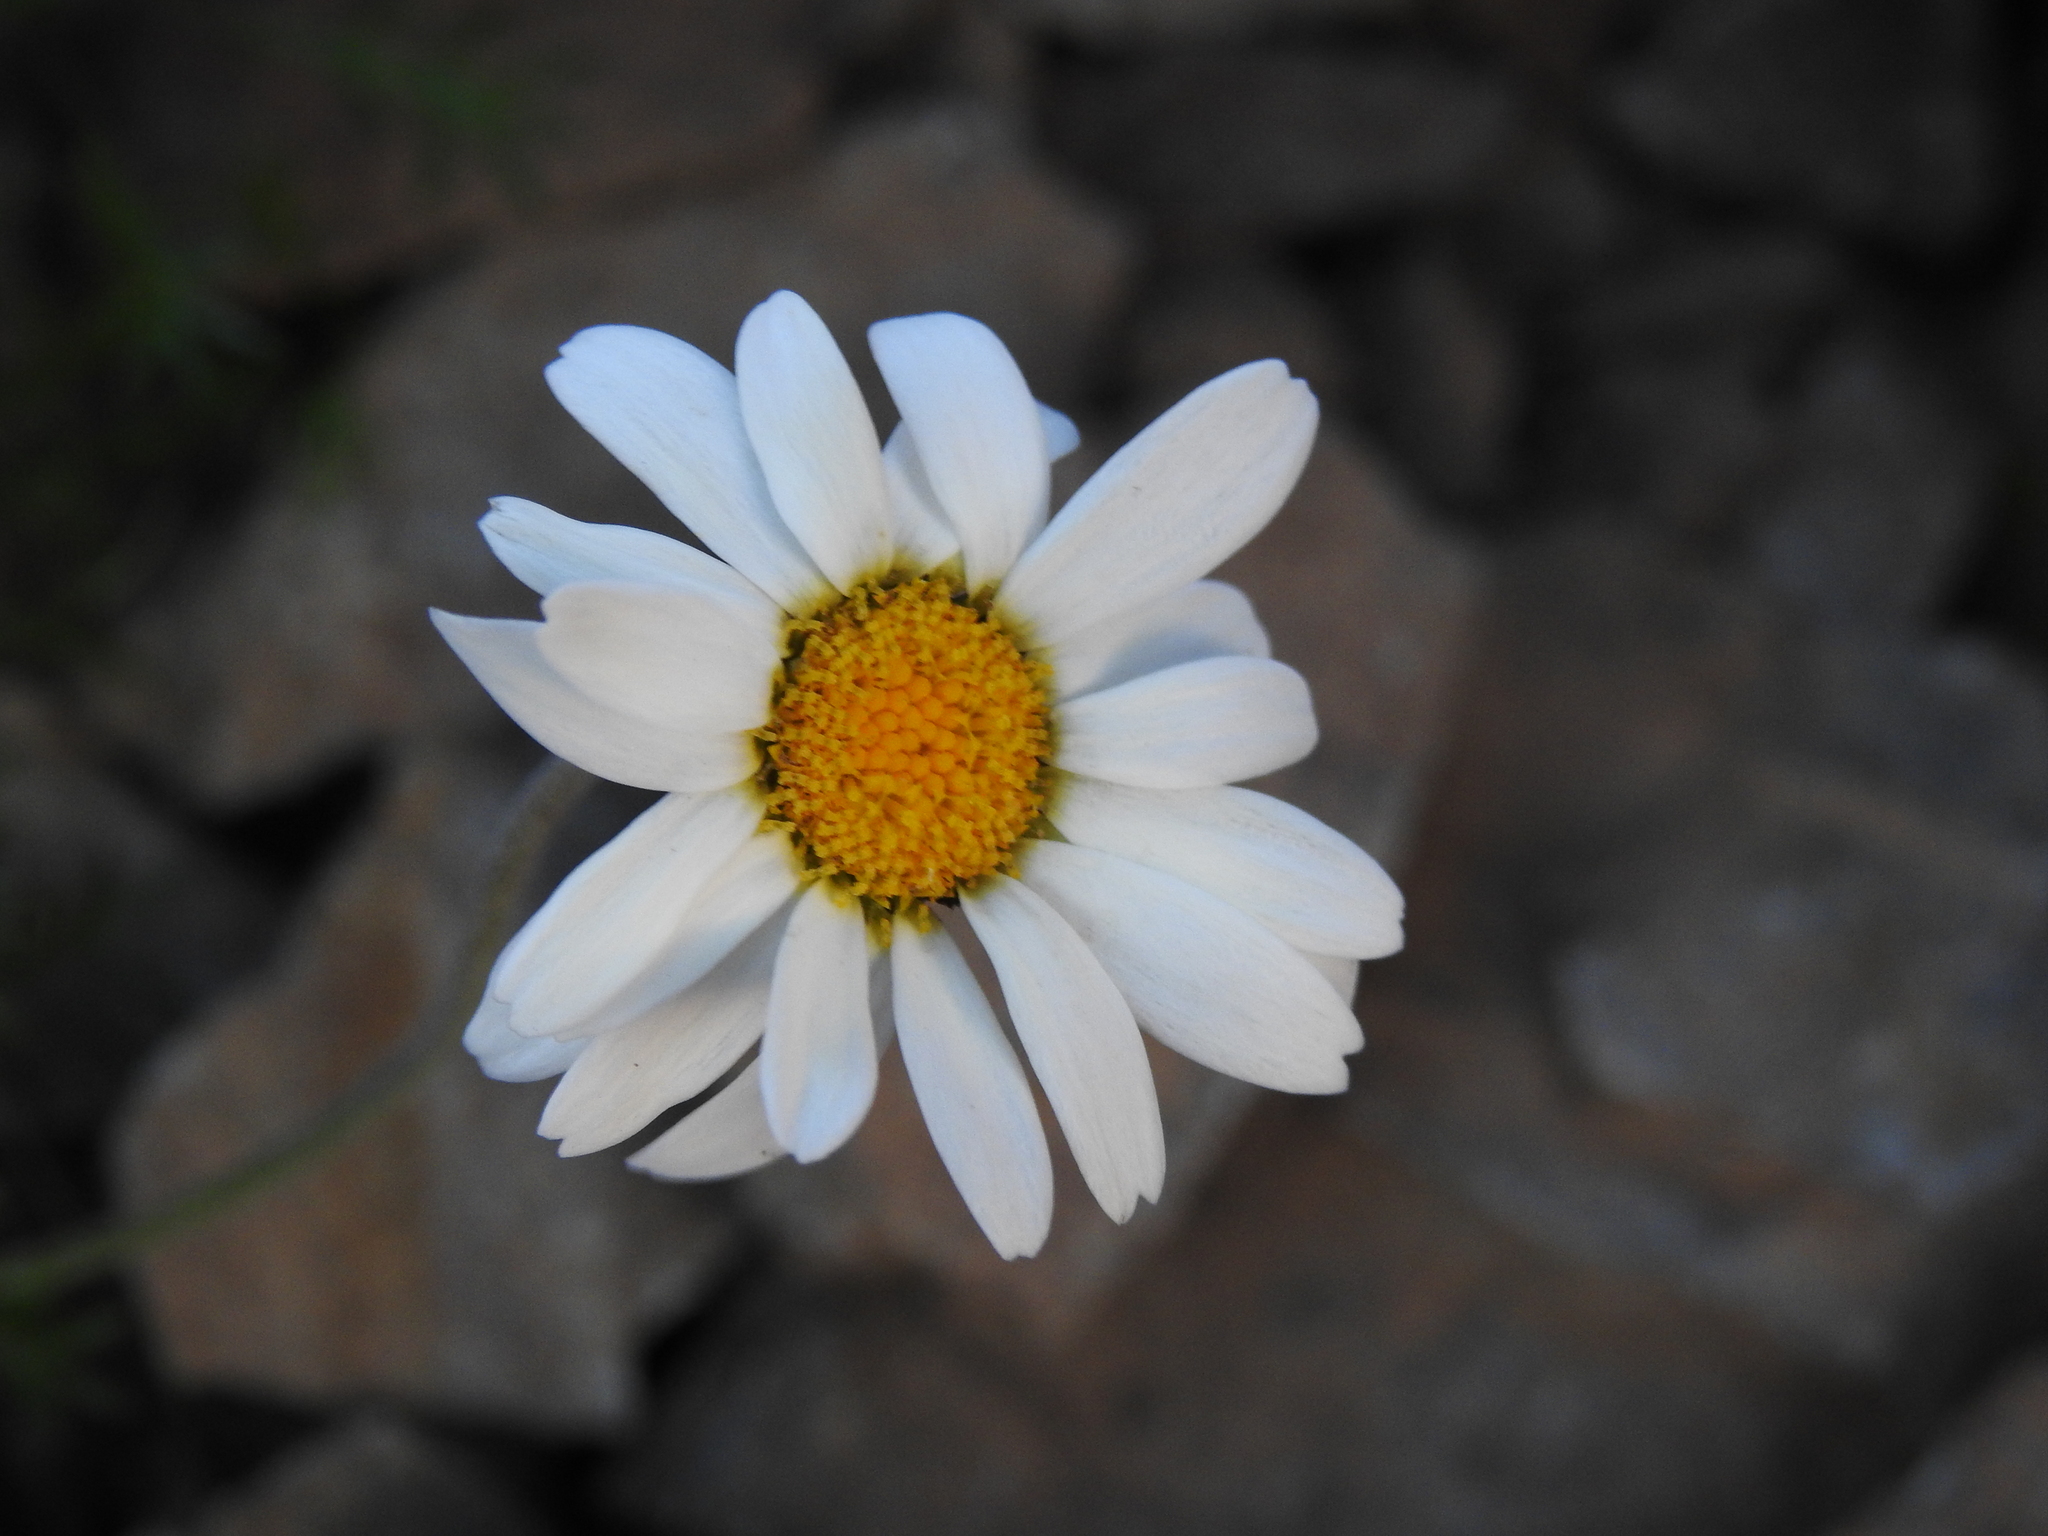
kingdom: Plantae
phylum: Tracheophyta
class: Magnoliopsida
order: Asterales
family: Asteraceae
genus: Leucanthemopsis
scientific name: Leucanthemopsis alpina
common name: Alpine moon daisy
